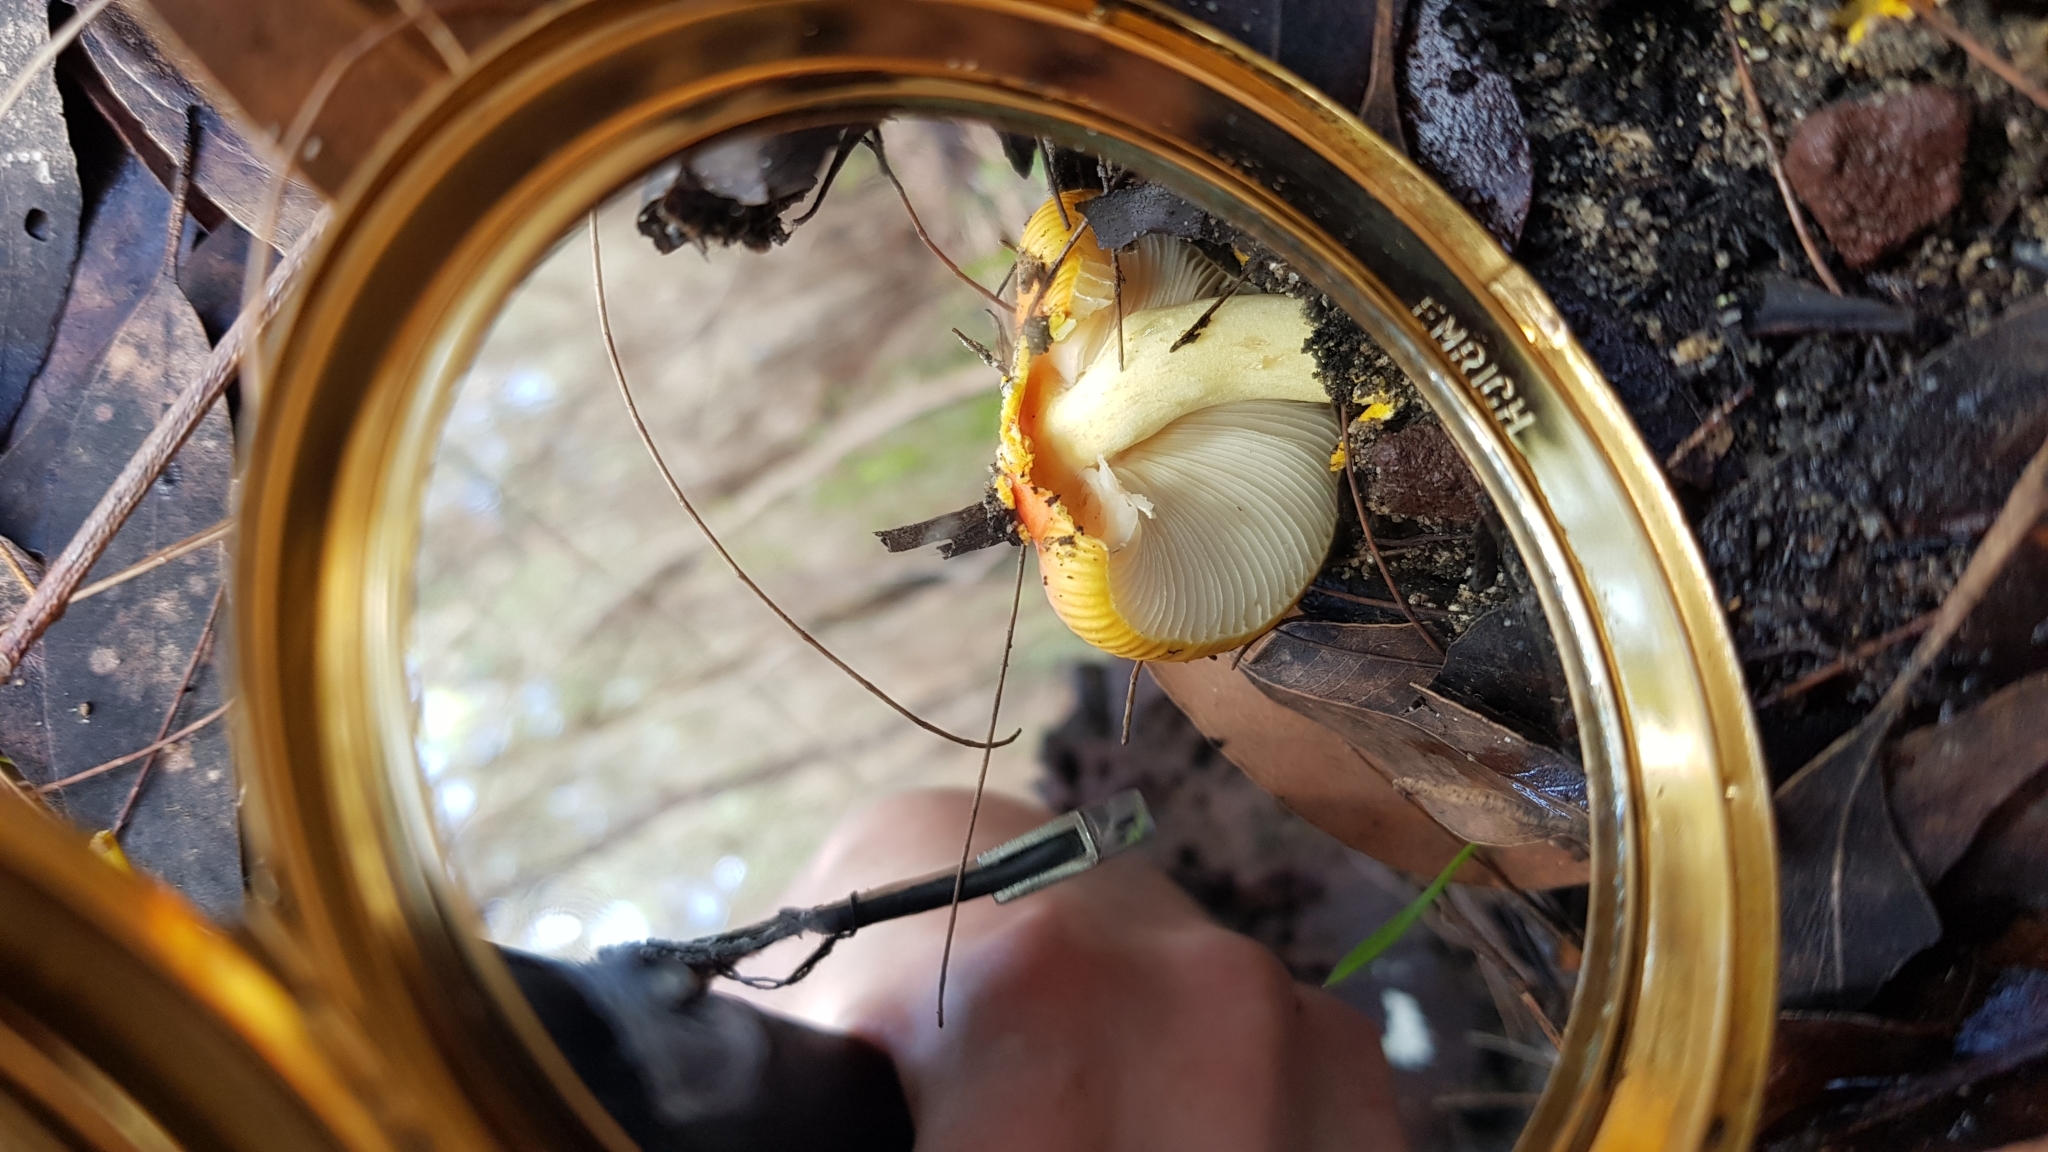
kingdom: Fungi
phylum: Basidiomycota
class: Agaricomycetes
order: Agaricales
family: Amanitaceae
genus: Amanita
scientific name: Amanita xanthocephala
